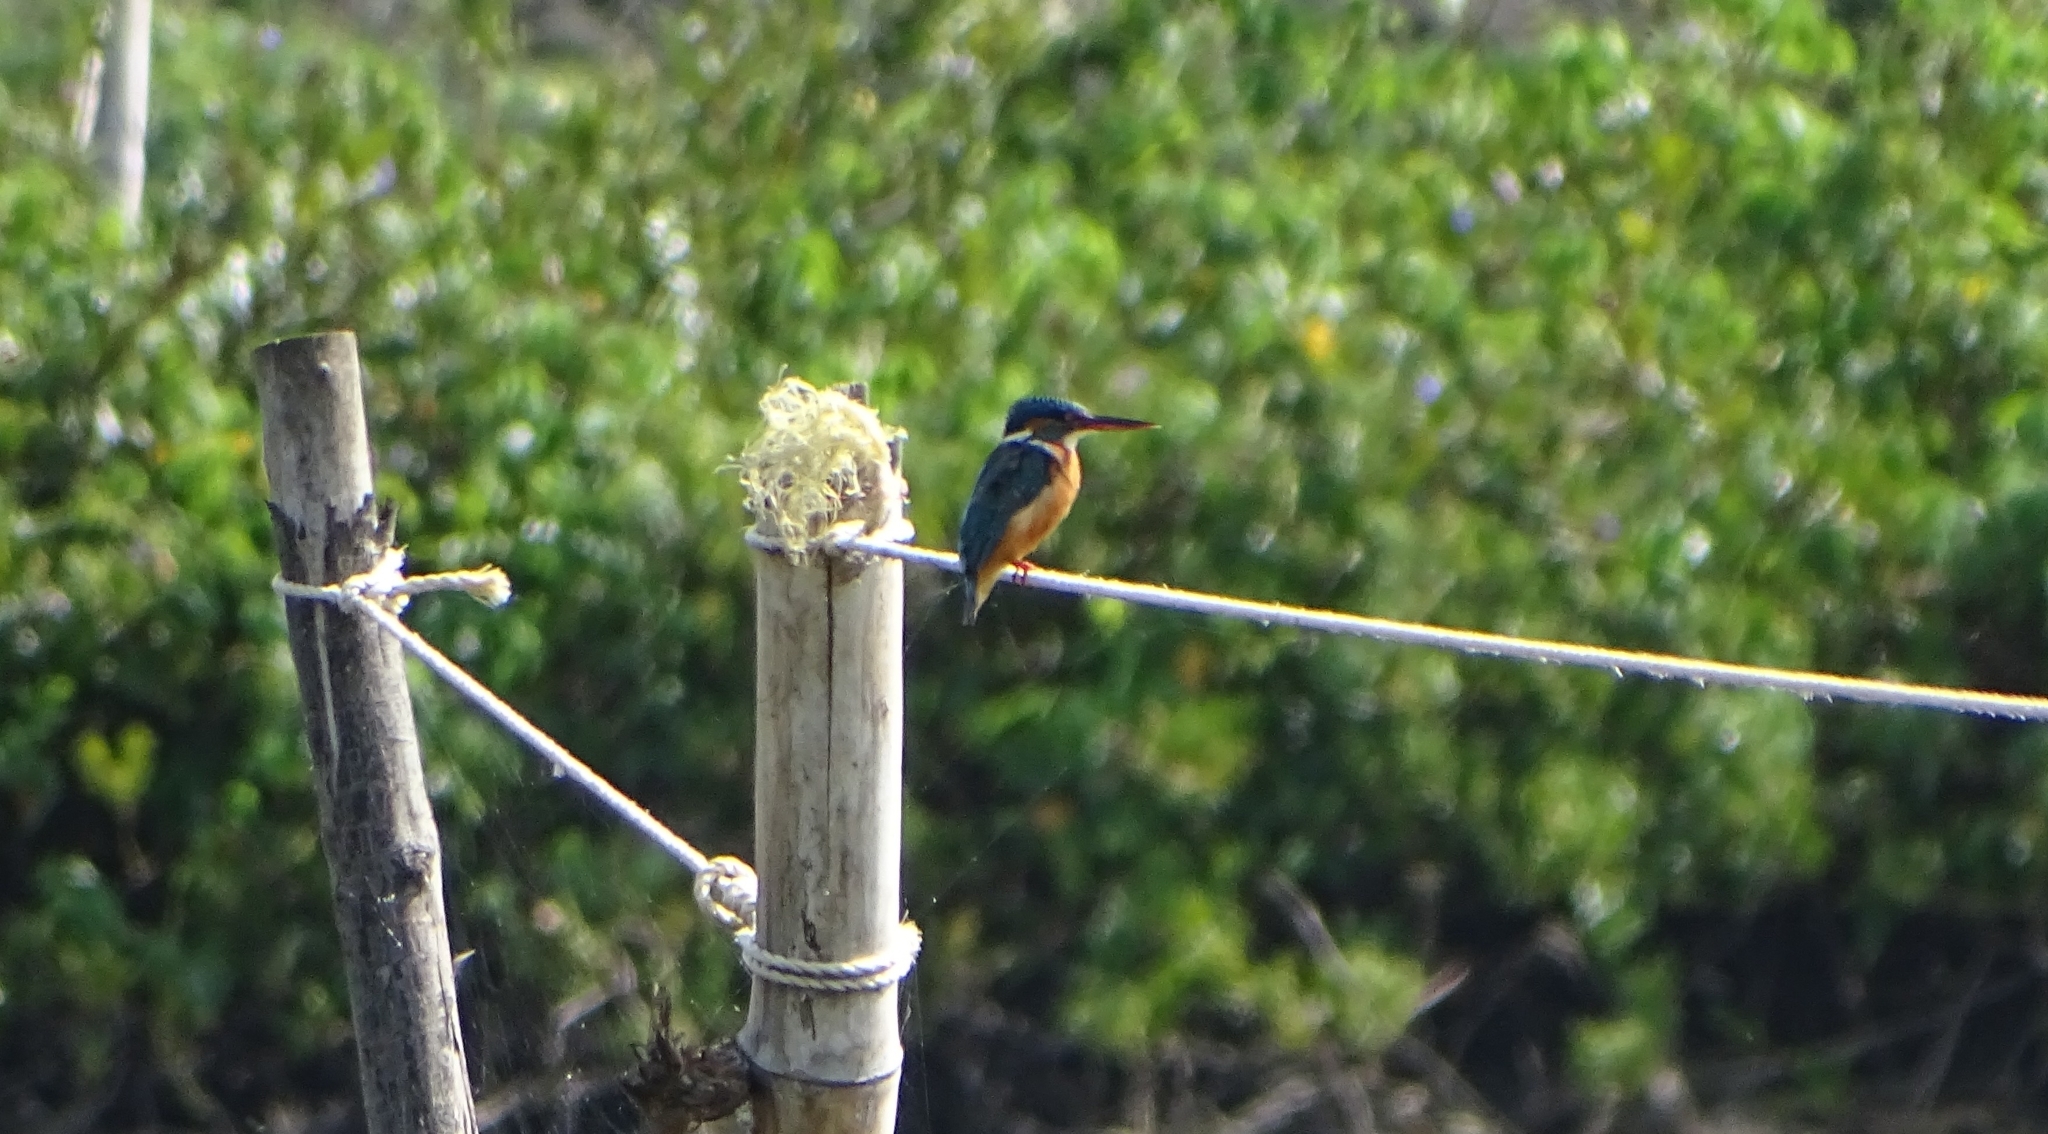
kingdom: Animalia
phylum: Chordata
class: Aves
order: Coraciiformes
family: Alcedinidae
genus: Alcedo
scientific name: Alcedo atthis
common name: Common kingfisher
